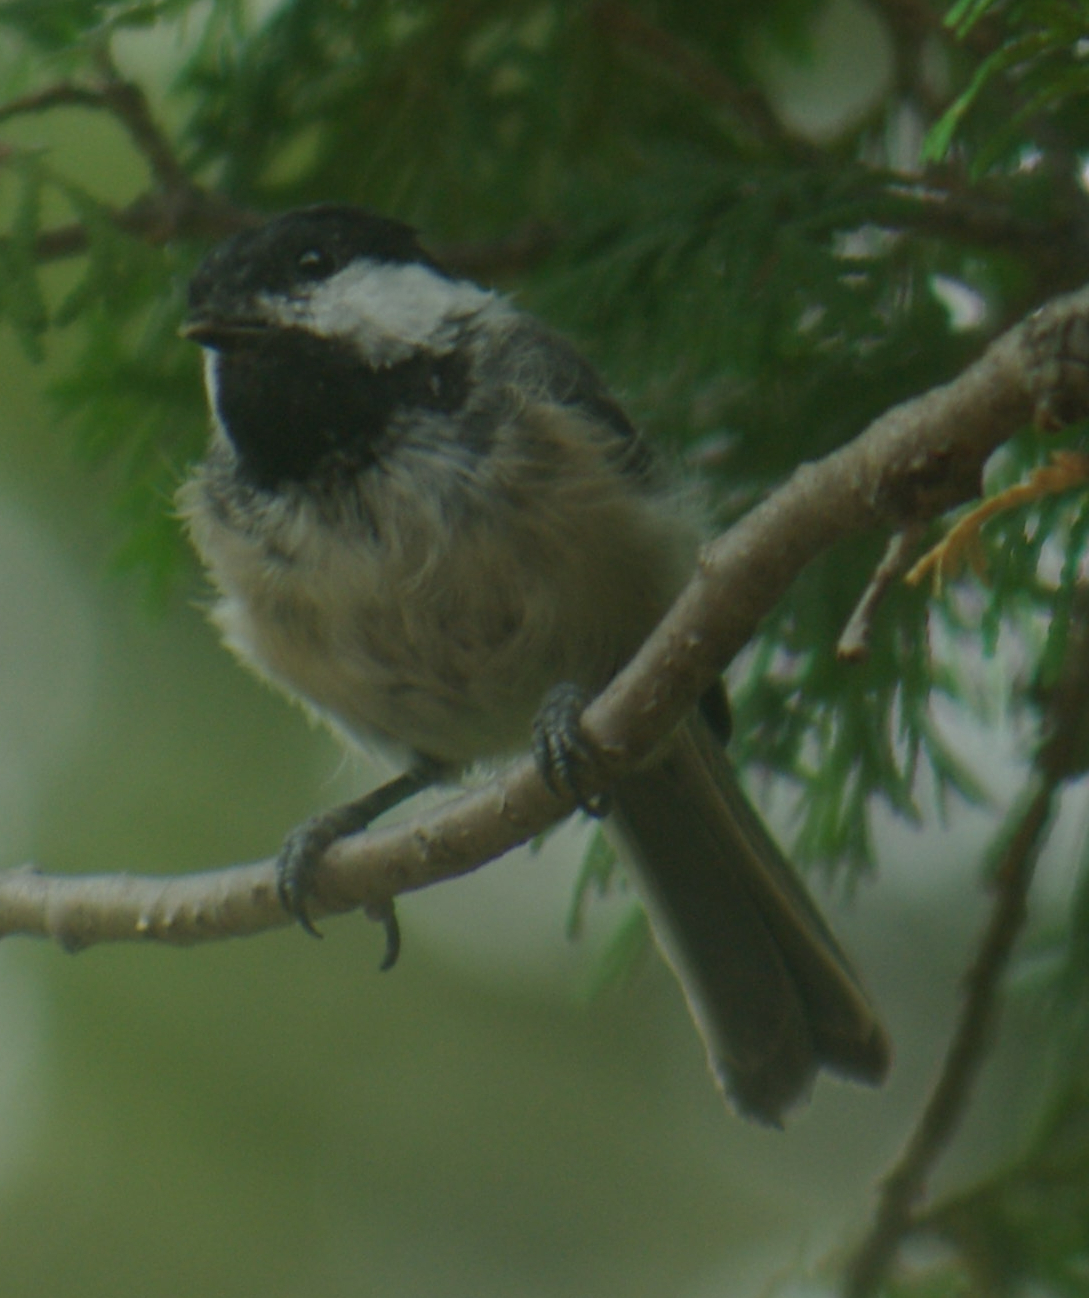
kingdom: Animalia
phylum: Chordata
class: Aves
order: Passeriformes
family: Paridae
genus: Poecile
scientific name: Poecile atricapillus
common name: Black-capped chickadee
